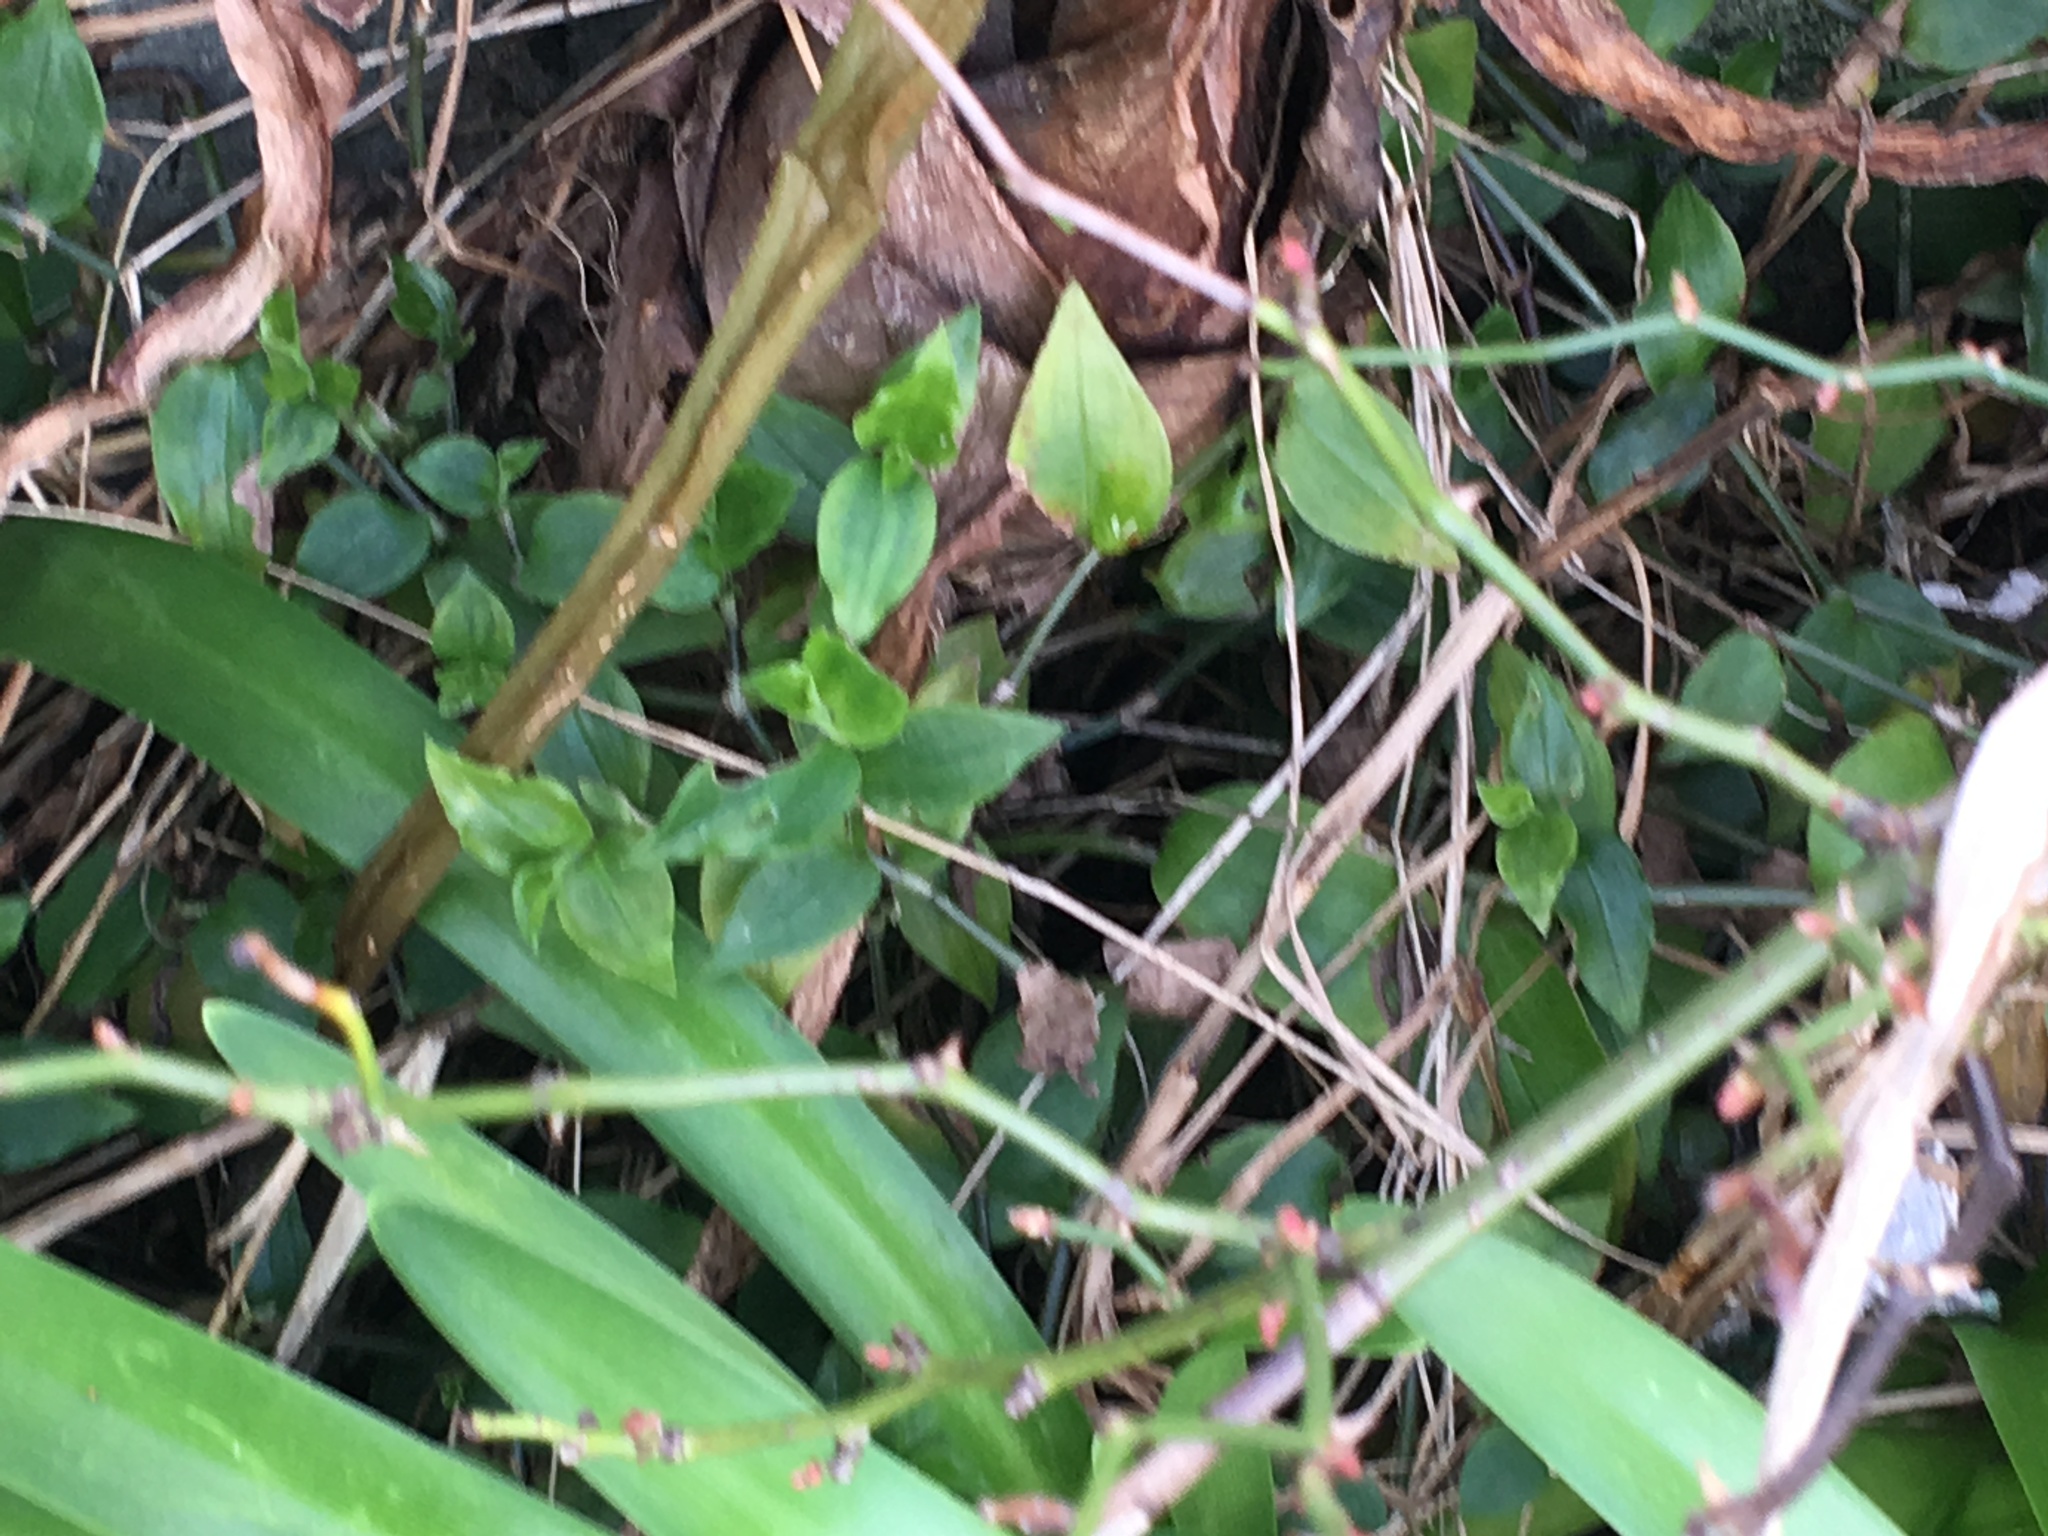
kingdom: Plantae
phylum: Tracheophyta
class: Liliopsida
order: Commelinales
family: Commelinaceae
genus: Tradescantia
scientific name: Tradescantia fluminensis
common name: Wandering-jew
